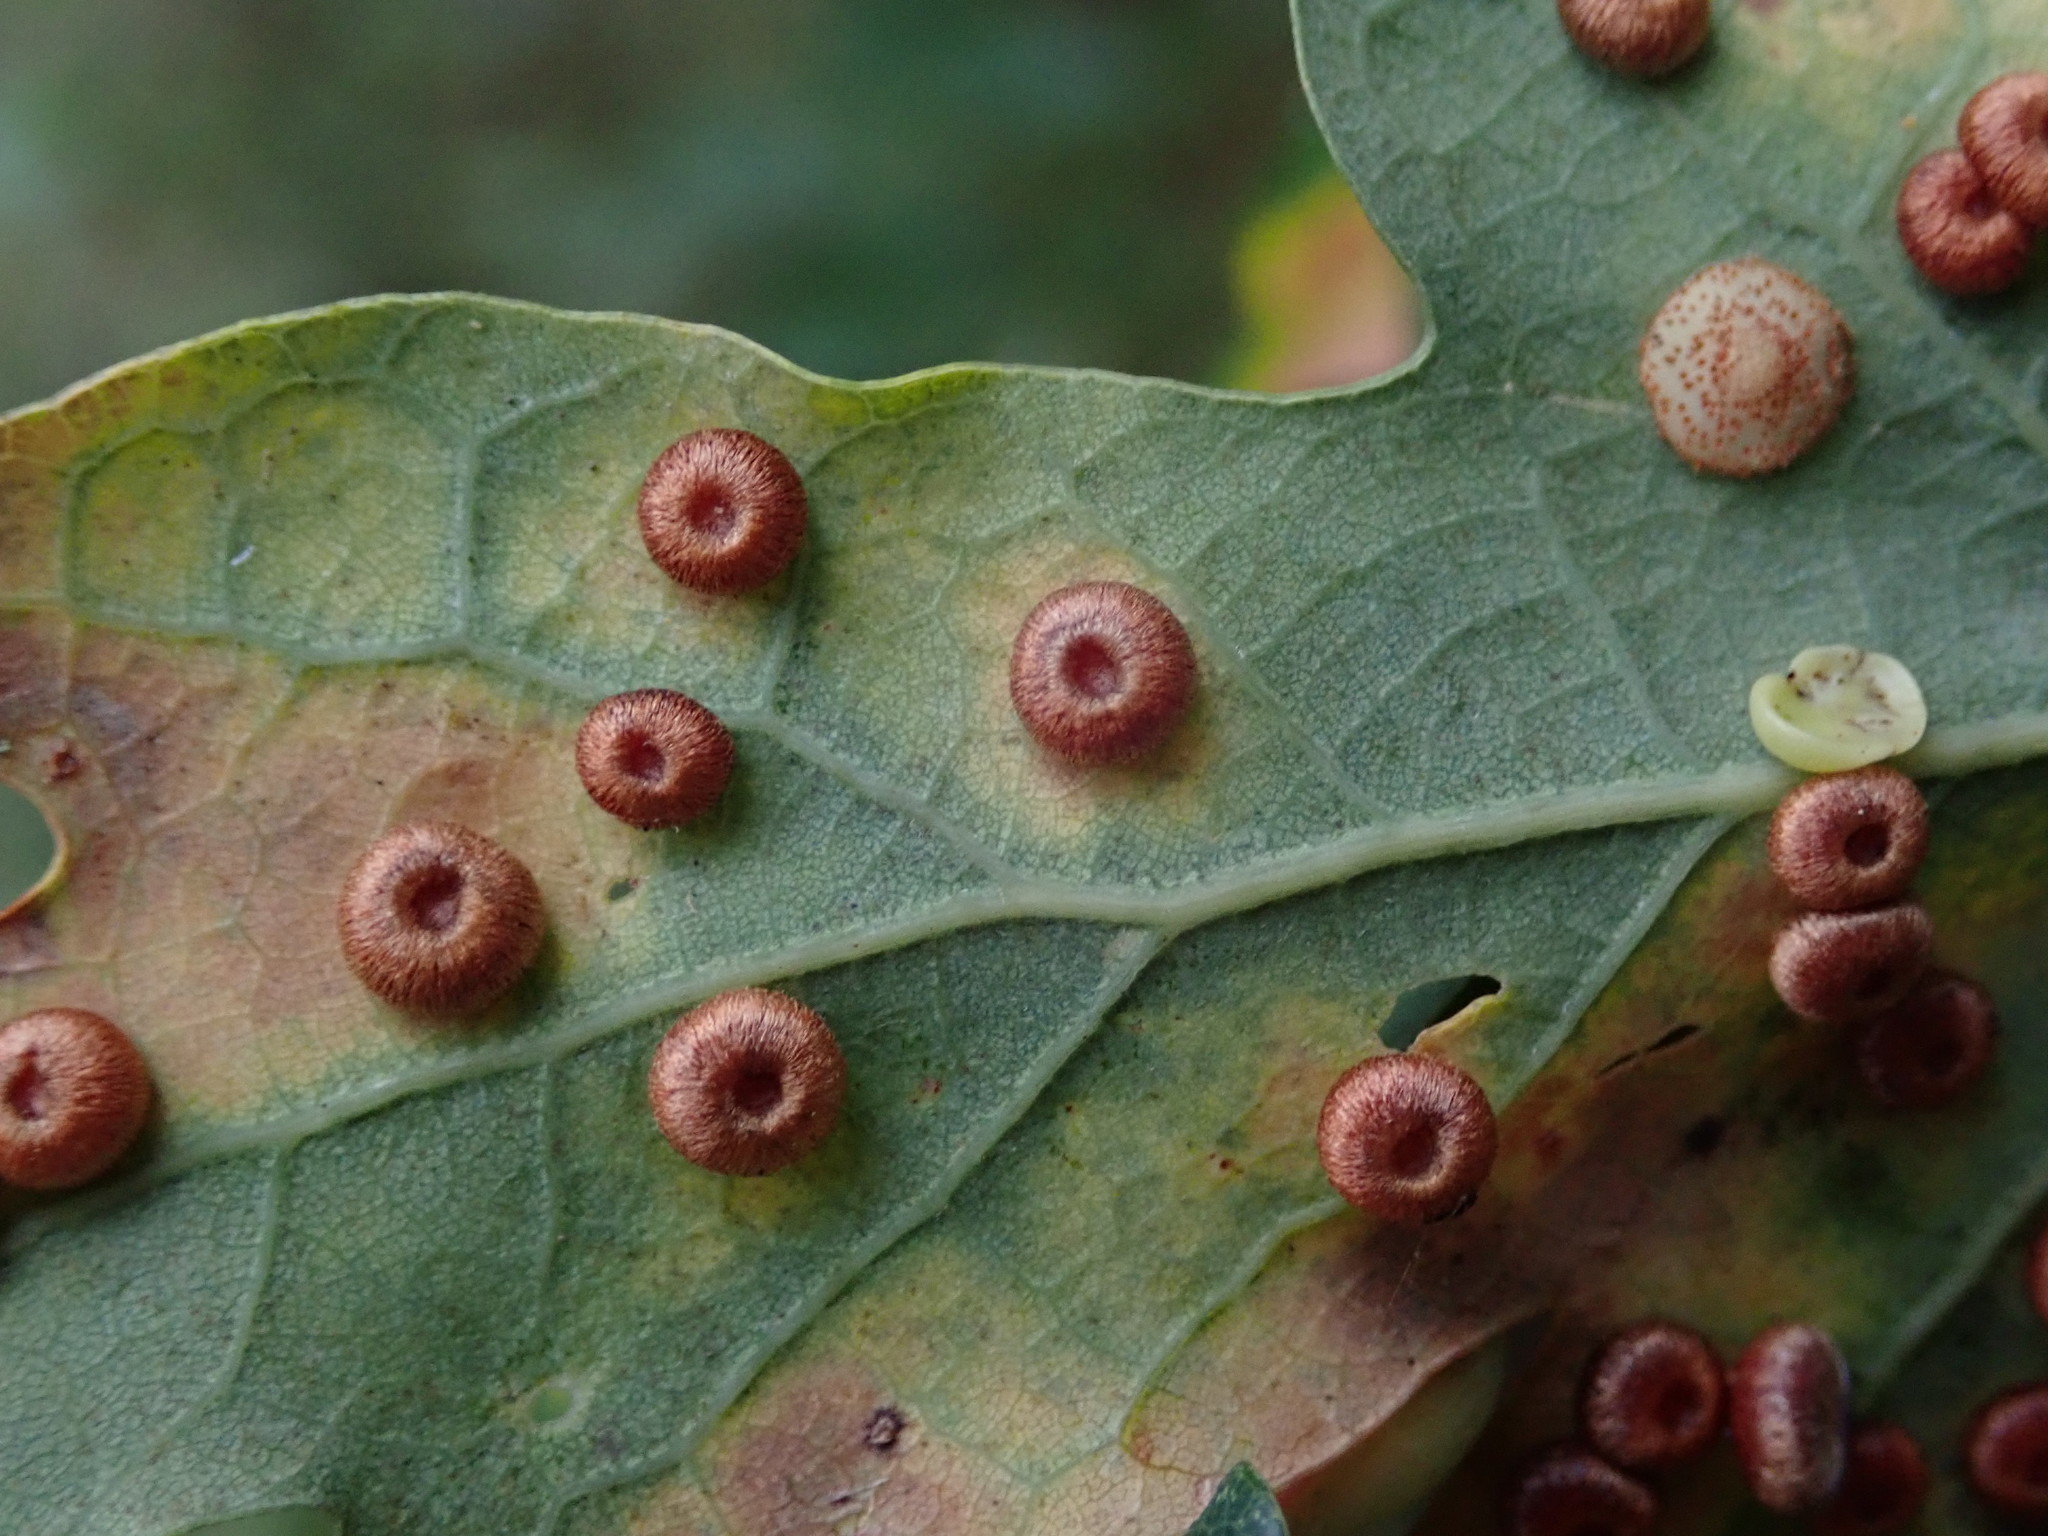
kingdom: Animalia
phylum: Arthropoda
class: Insecta
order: Hymenoptera
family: Cynipidae
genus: Neuroterus
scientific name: Neuroterus albipes
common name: Smooth spangle gall
